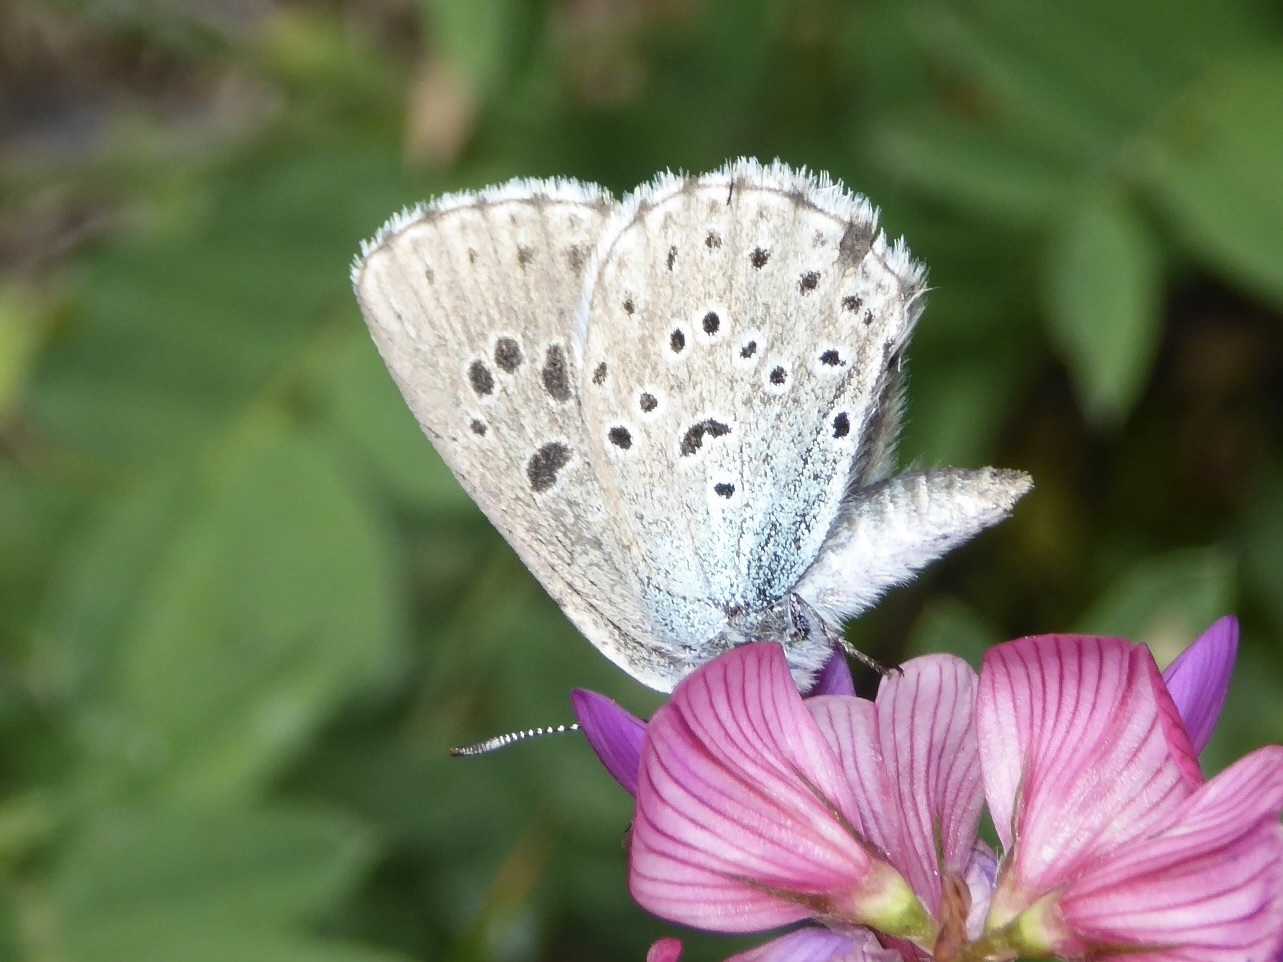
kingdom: Animalia
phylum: Arthropoda
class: Insecta
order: Lepidoptera
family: Lycaenidae
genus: Maculinea
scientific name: Maculinea arion
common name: Large blue
